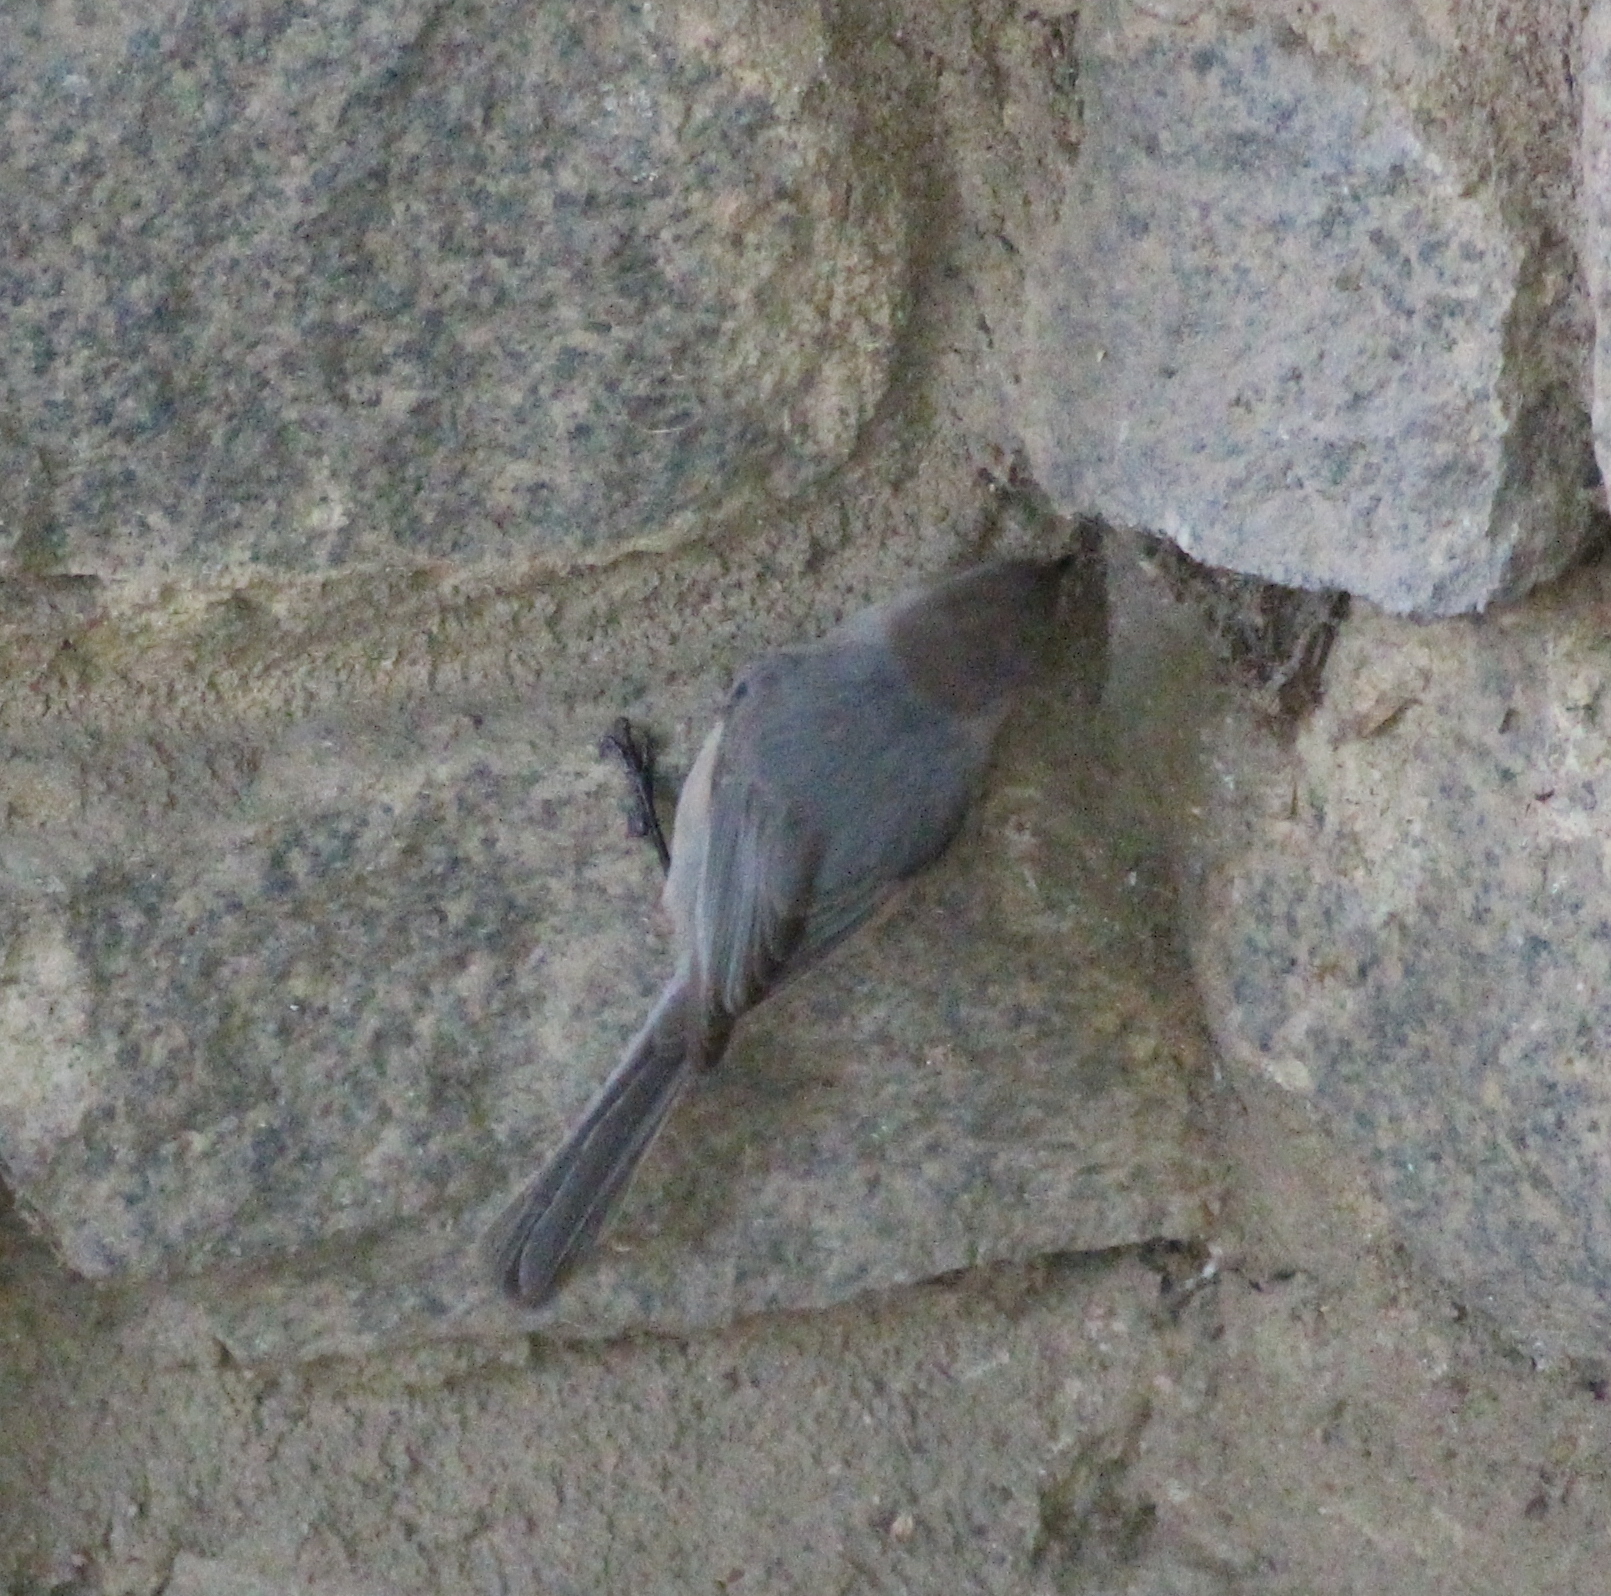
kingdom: Animalia
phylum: Chordata
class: Aves
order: Passeriformes
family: Aegithalidae
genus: Psaltriparus
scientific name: Psaltriparus minimus
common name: American bushtit
